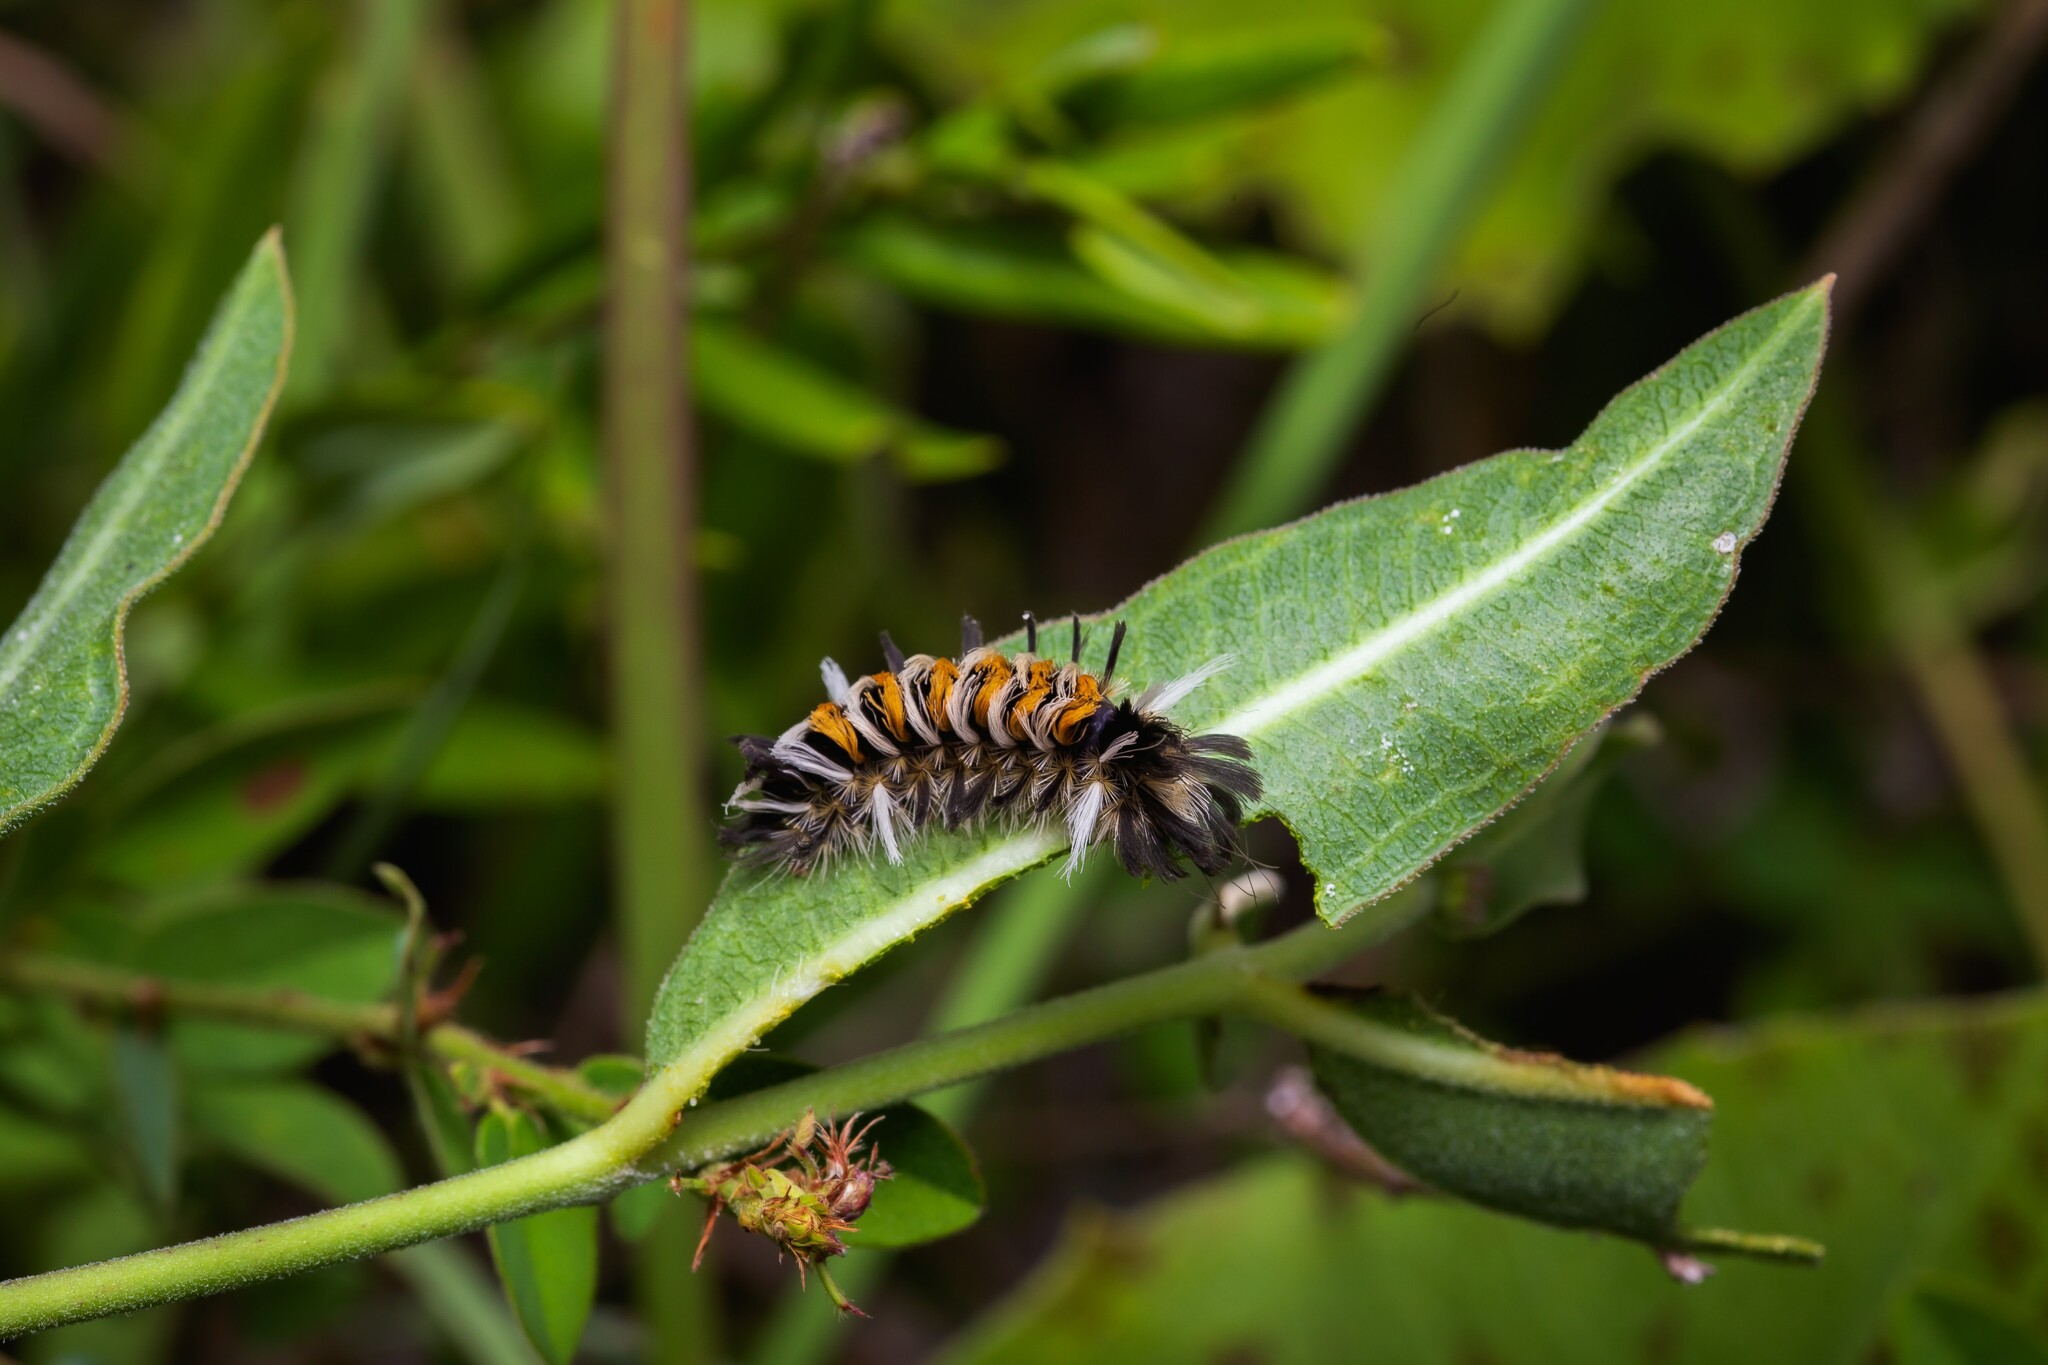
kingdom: Animalia
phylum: Arthropoda
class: Insecta
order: Lepidoptera
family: Erebidae
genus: Euchaetes
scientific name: Euchaetes egle
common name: Milkweed tussock moth
